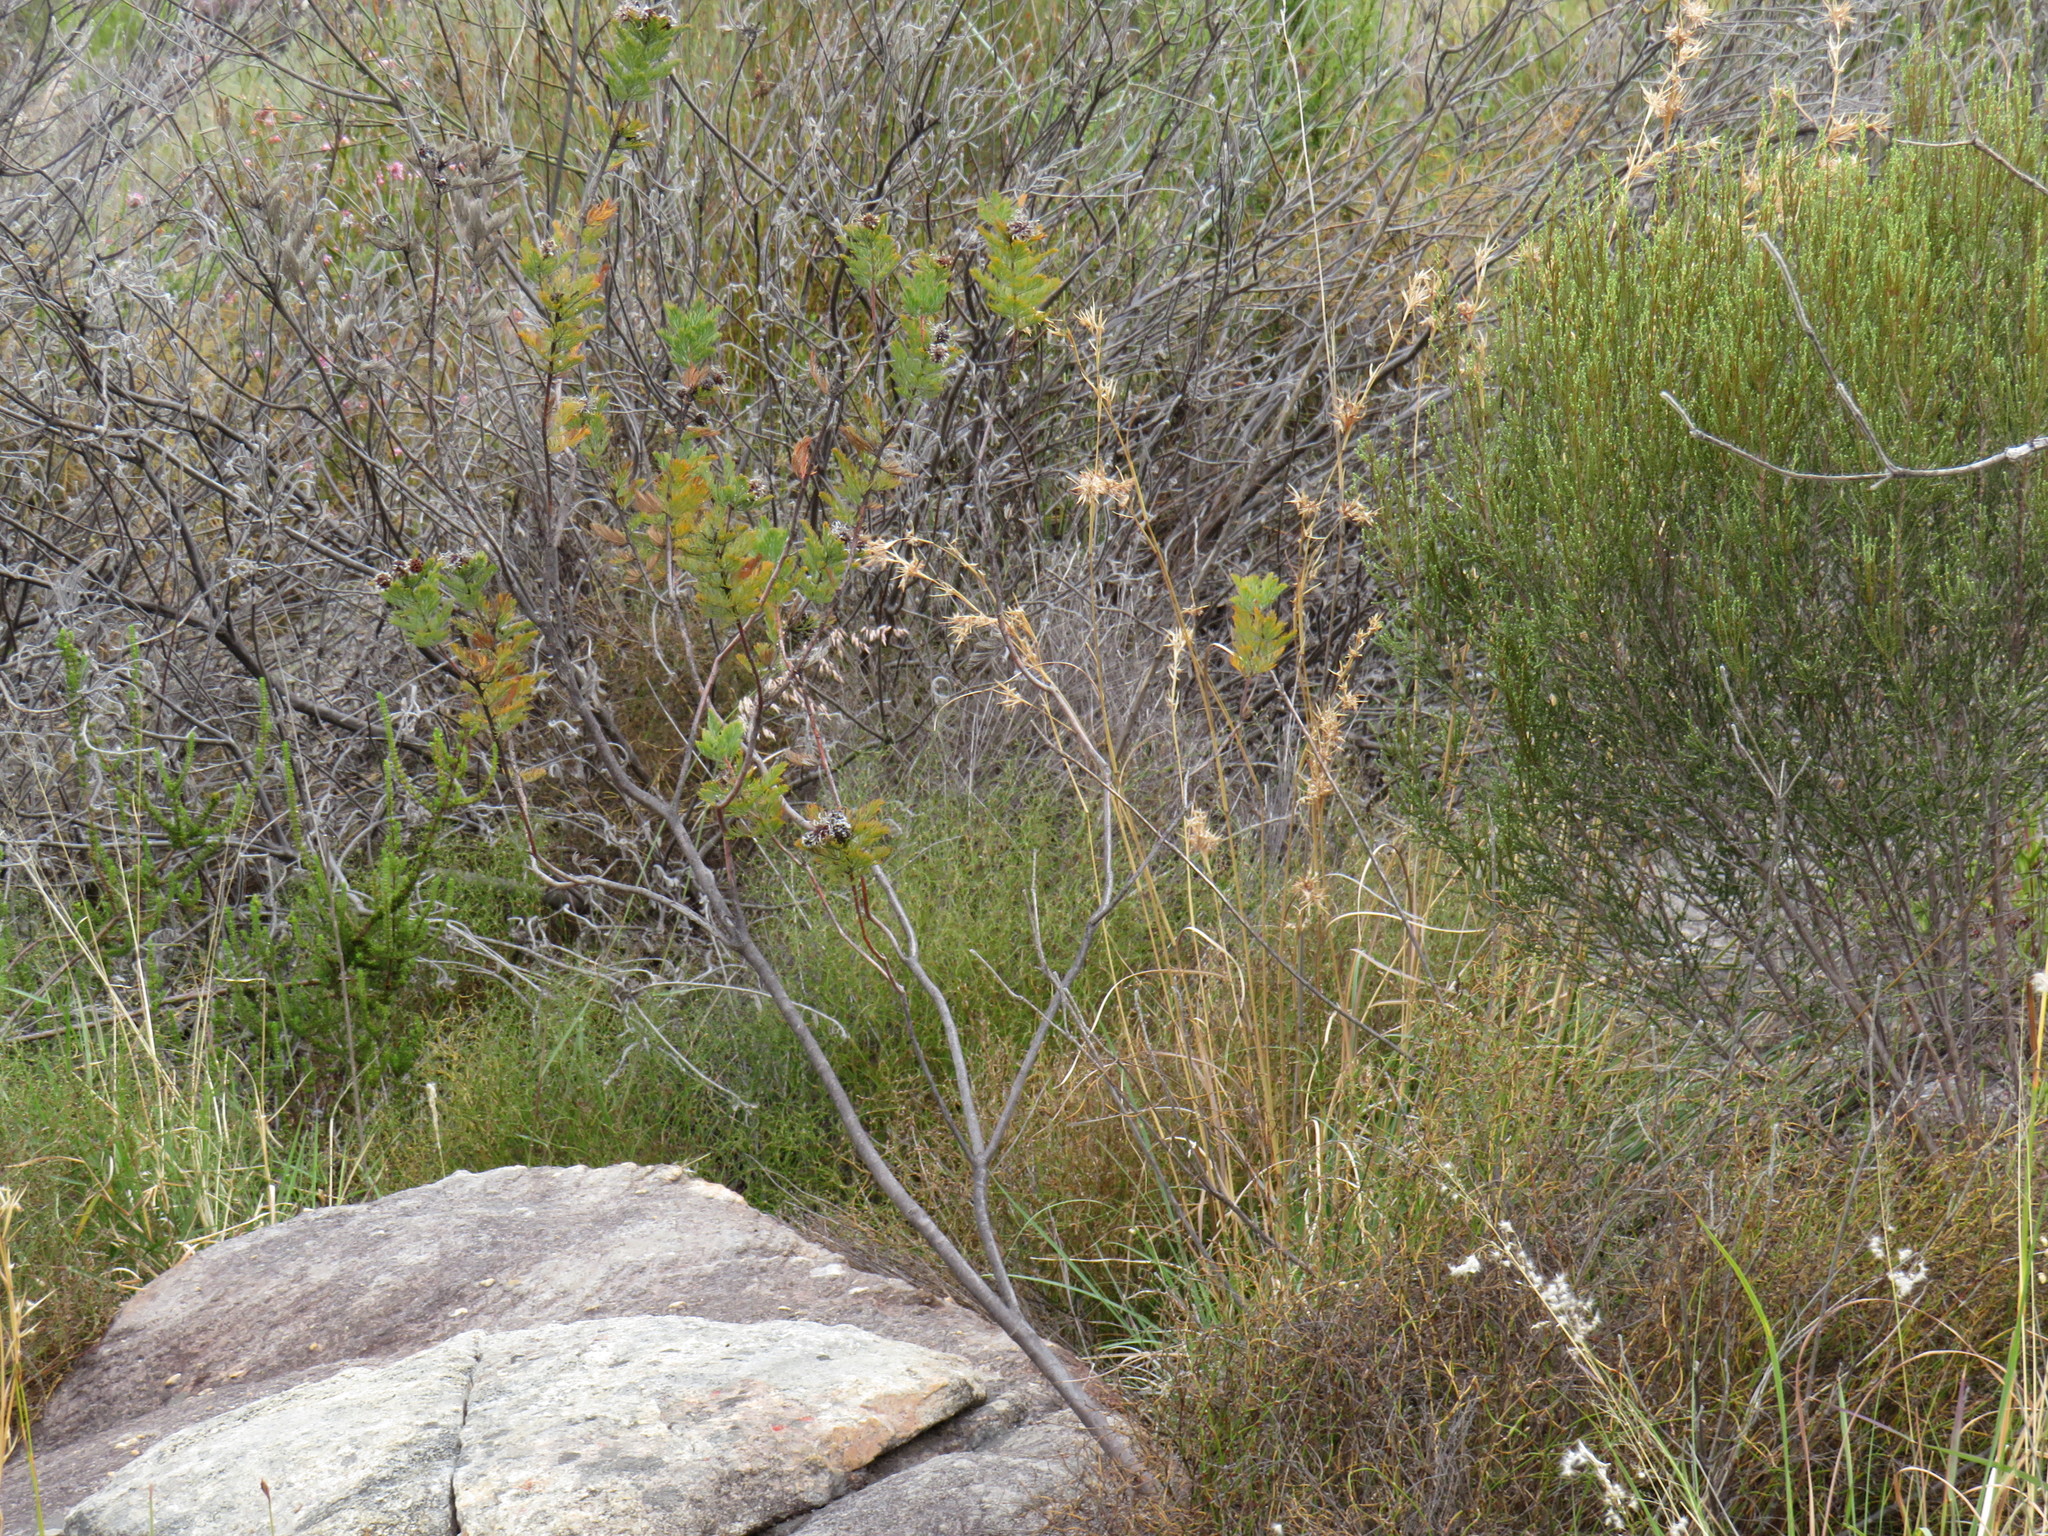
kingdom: Plantae
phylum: Tracheophyta
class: Magnoliopsida
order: Proteales
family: Proteaceae
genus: Serruria
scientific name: Serruria pedunculata
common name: Fan-leaf spiderhead
